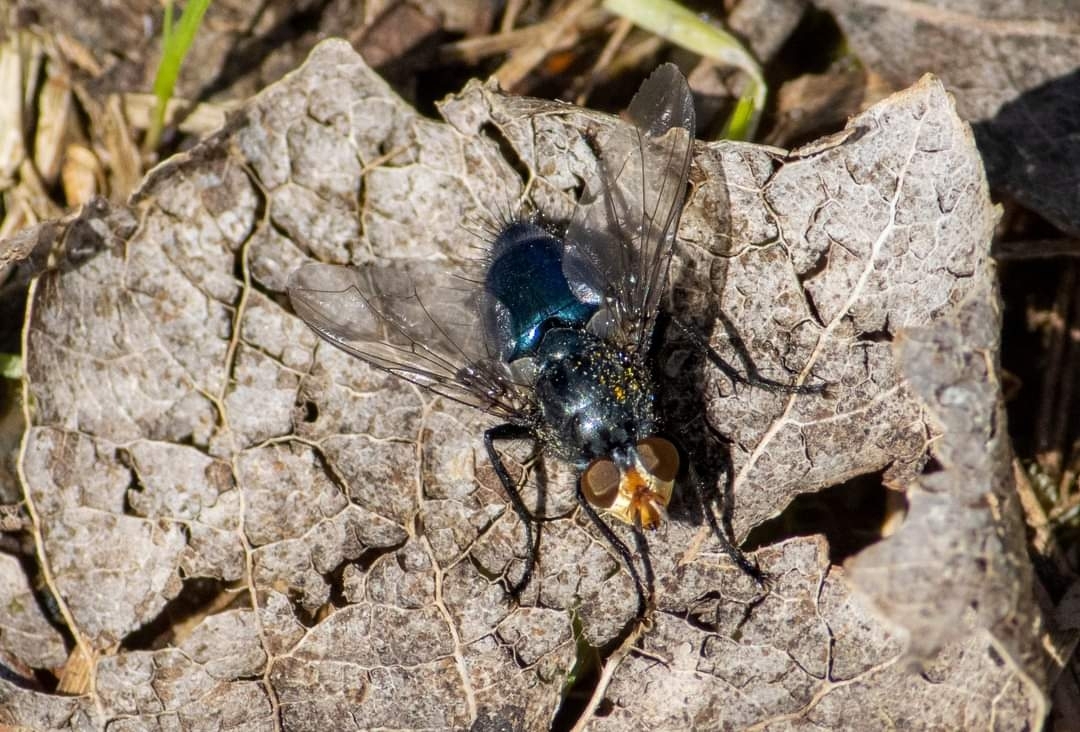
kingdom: Animalia
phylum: Arthropoda
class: Insecta
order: Diptera
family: Calliphoridae
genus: Cynomya
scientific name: Cynomya mortuorum
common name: Bluebottle blow fly
